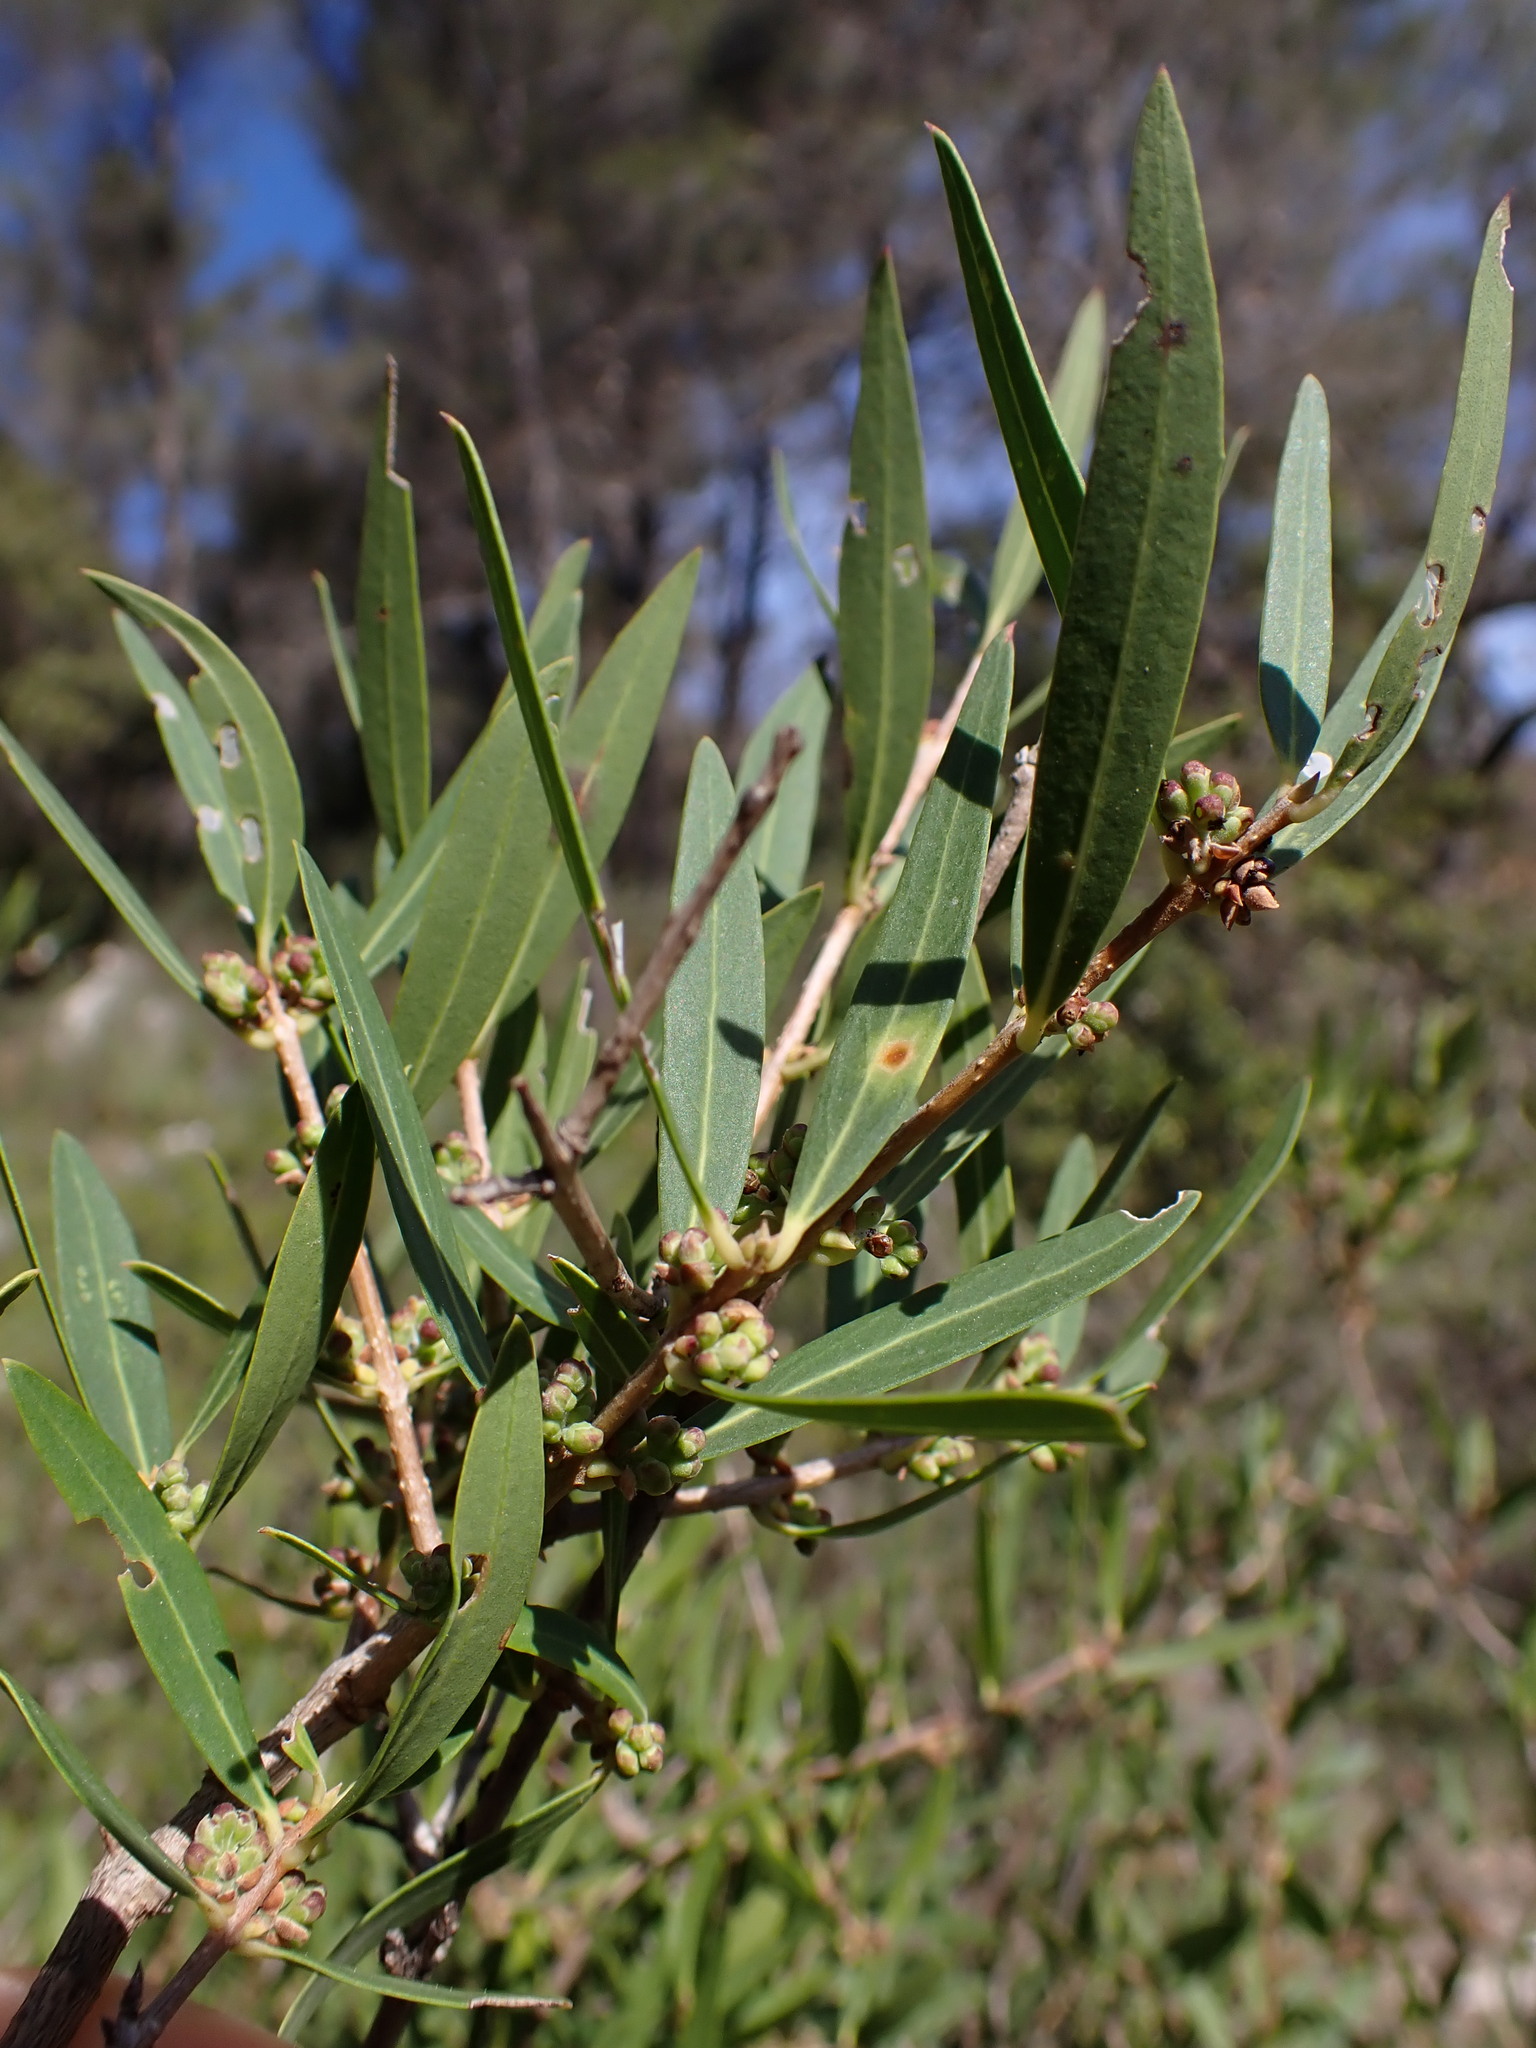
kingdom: Plantae
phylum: Tracheophyta
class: Magnoliopsida
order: Lamiales
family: Oleaceae
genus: Phillyrea
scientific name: Phillyrea angustifolia
